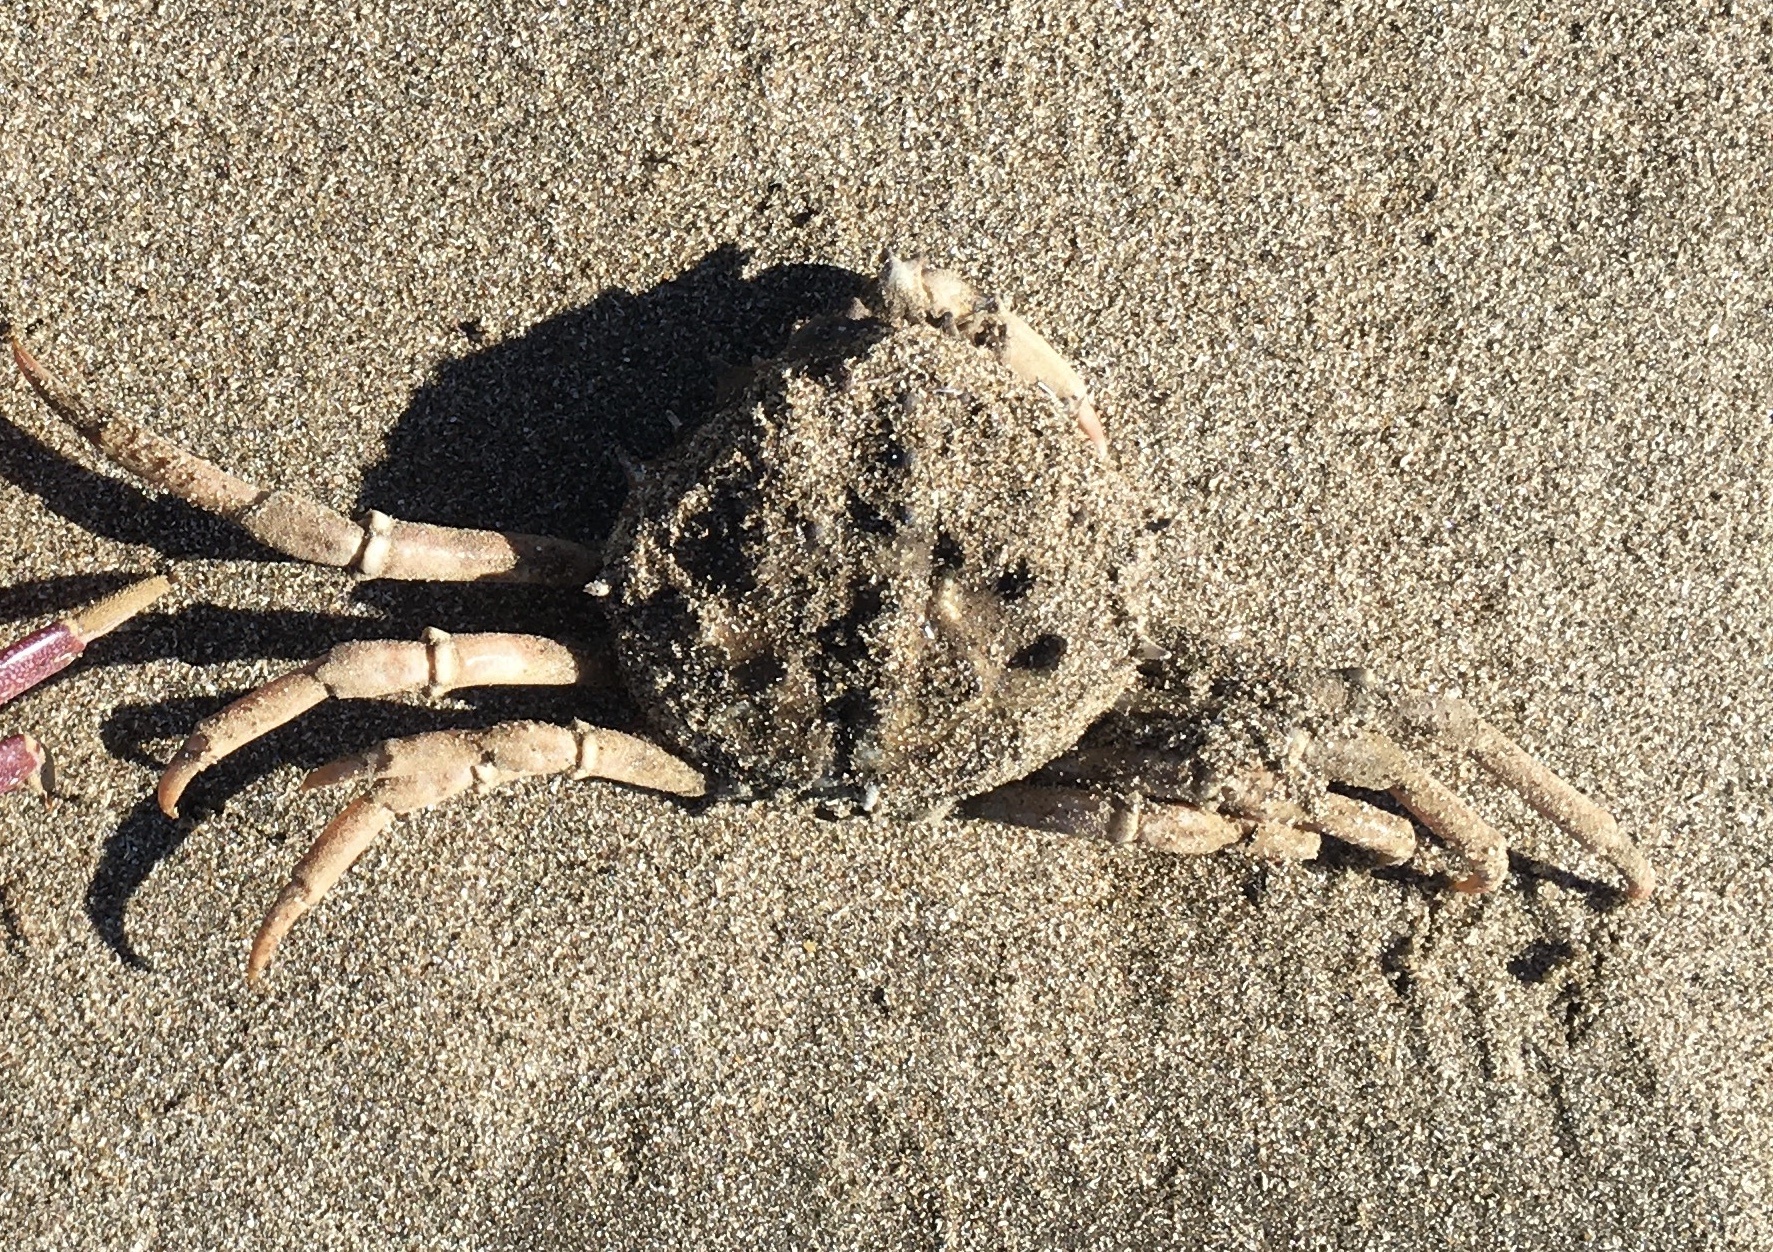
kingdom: Animalia
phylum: Arthropoda
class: Malacostraca
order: Decapoda
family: Epialtidae
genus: Libinia
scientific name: Libinia spinosa
